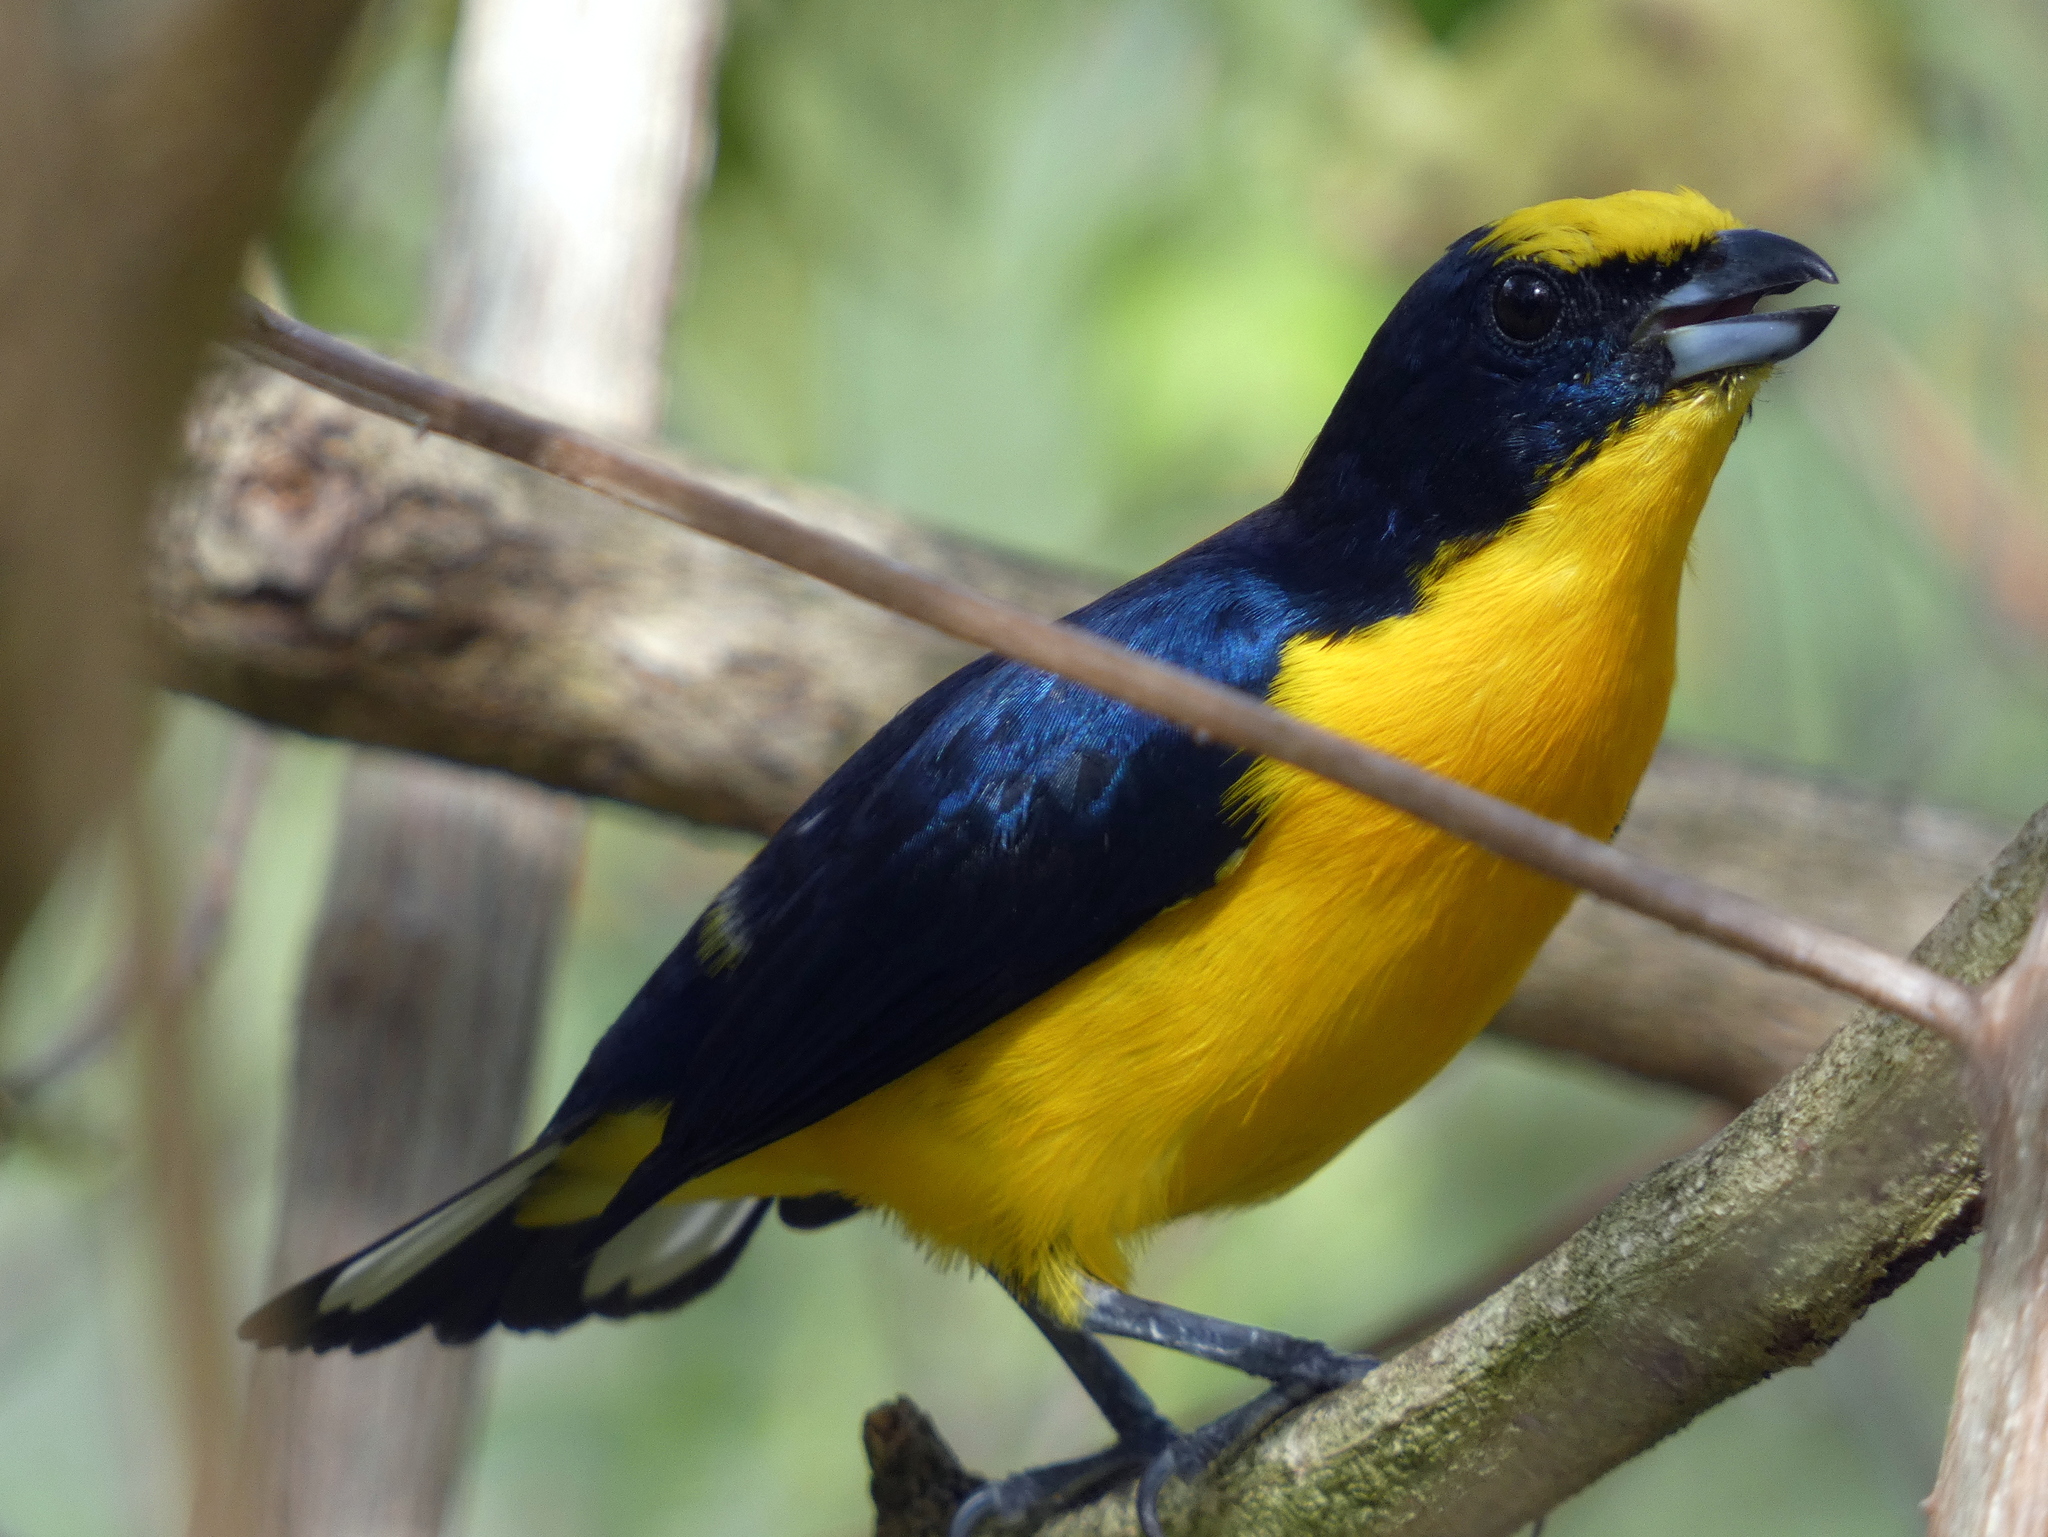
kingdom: Animalia
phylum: Chordata
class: Aves
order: Passeriformes
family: Fringillidae
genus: Euphonia
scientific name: Euphonia laniirostris
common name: Thick-billed euphonia
